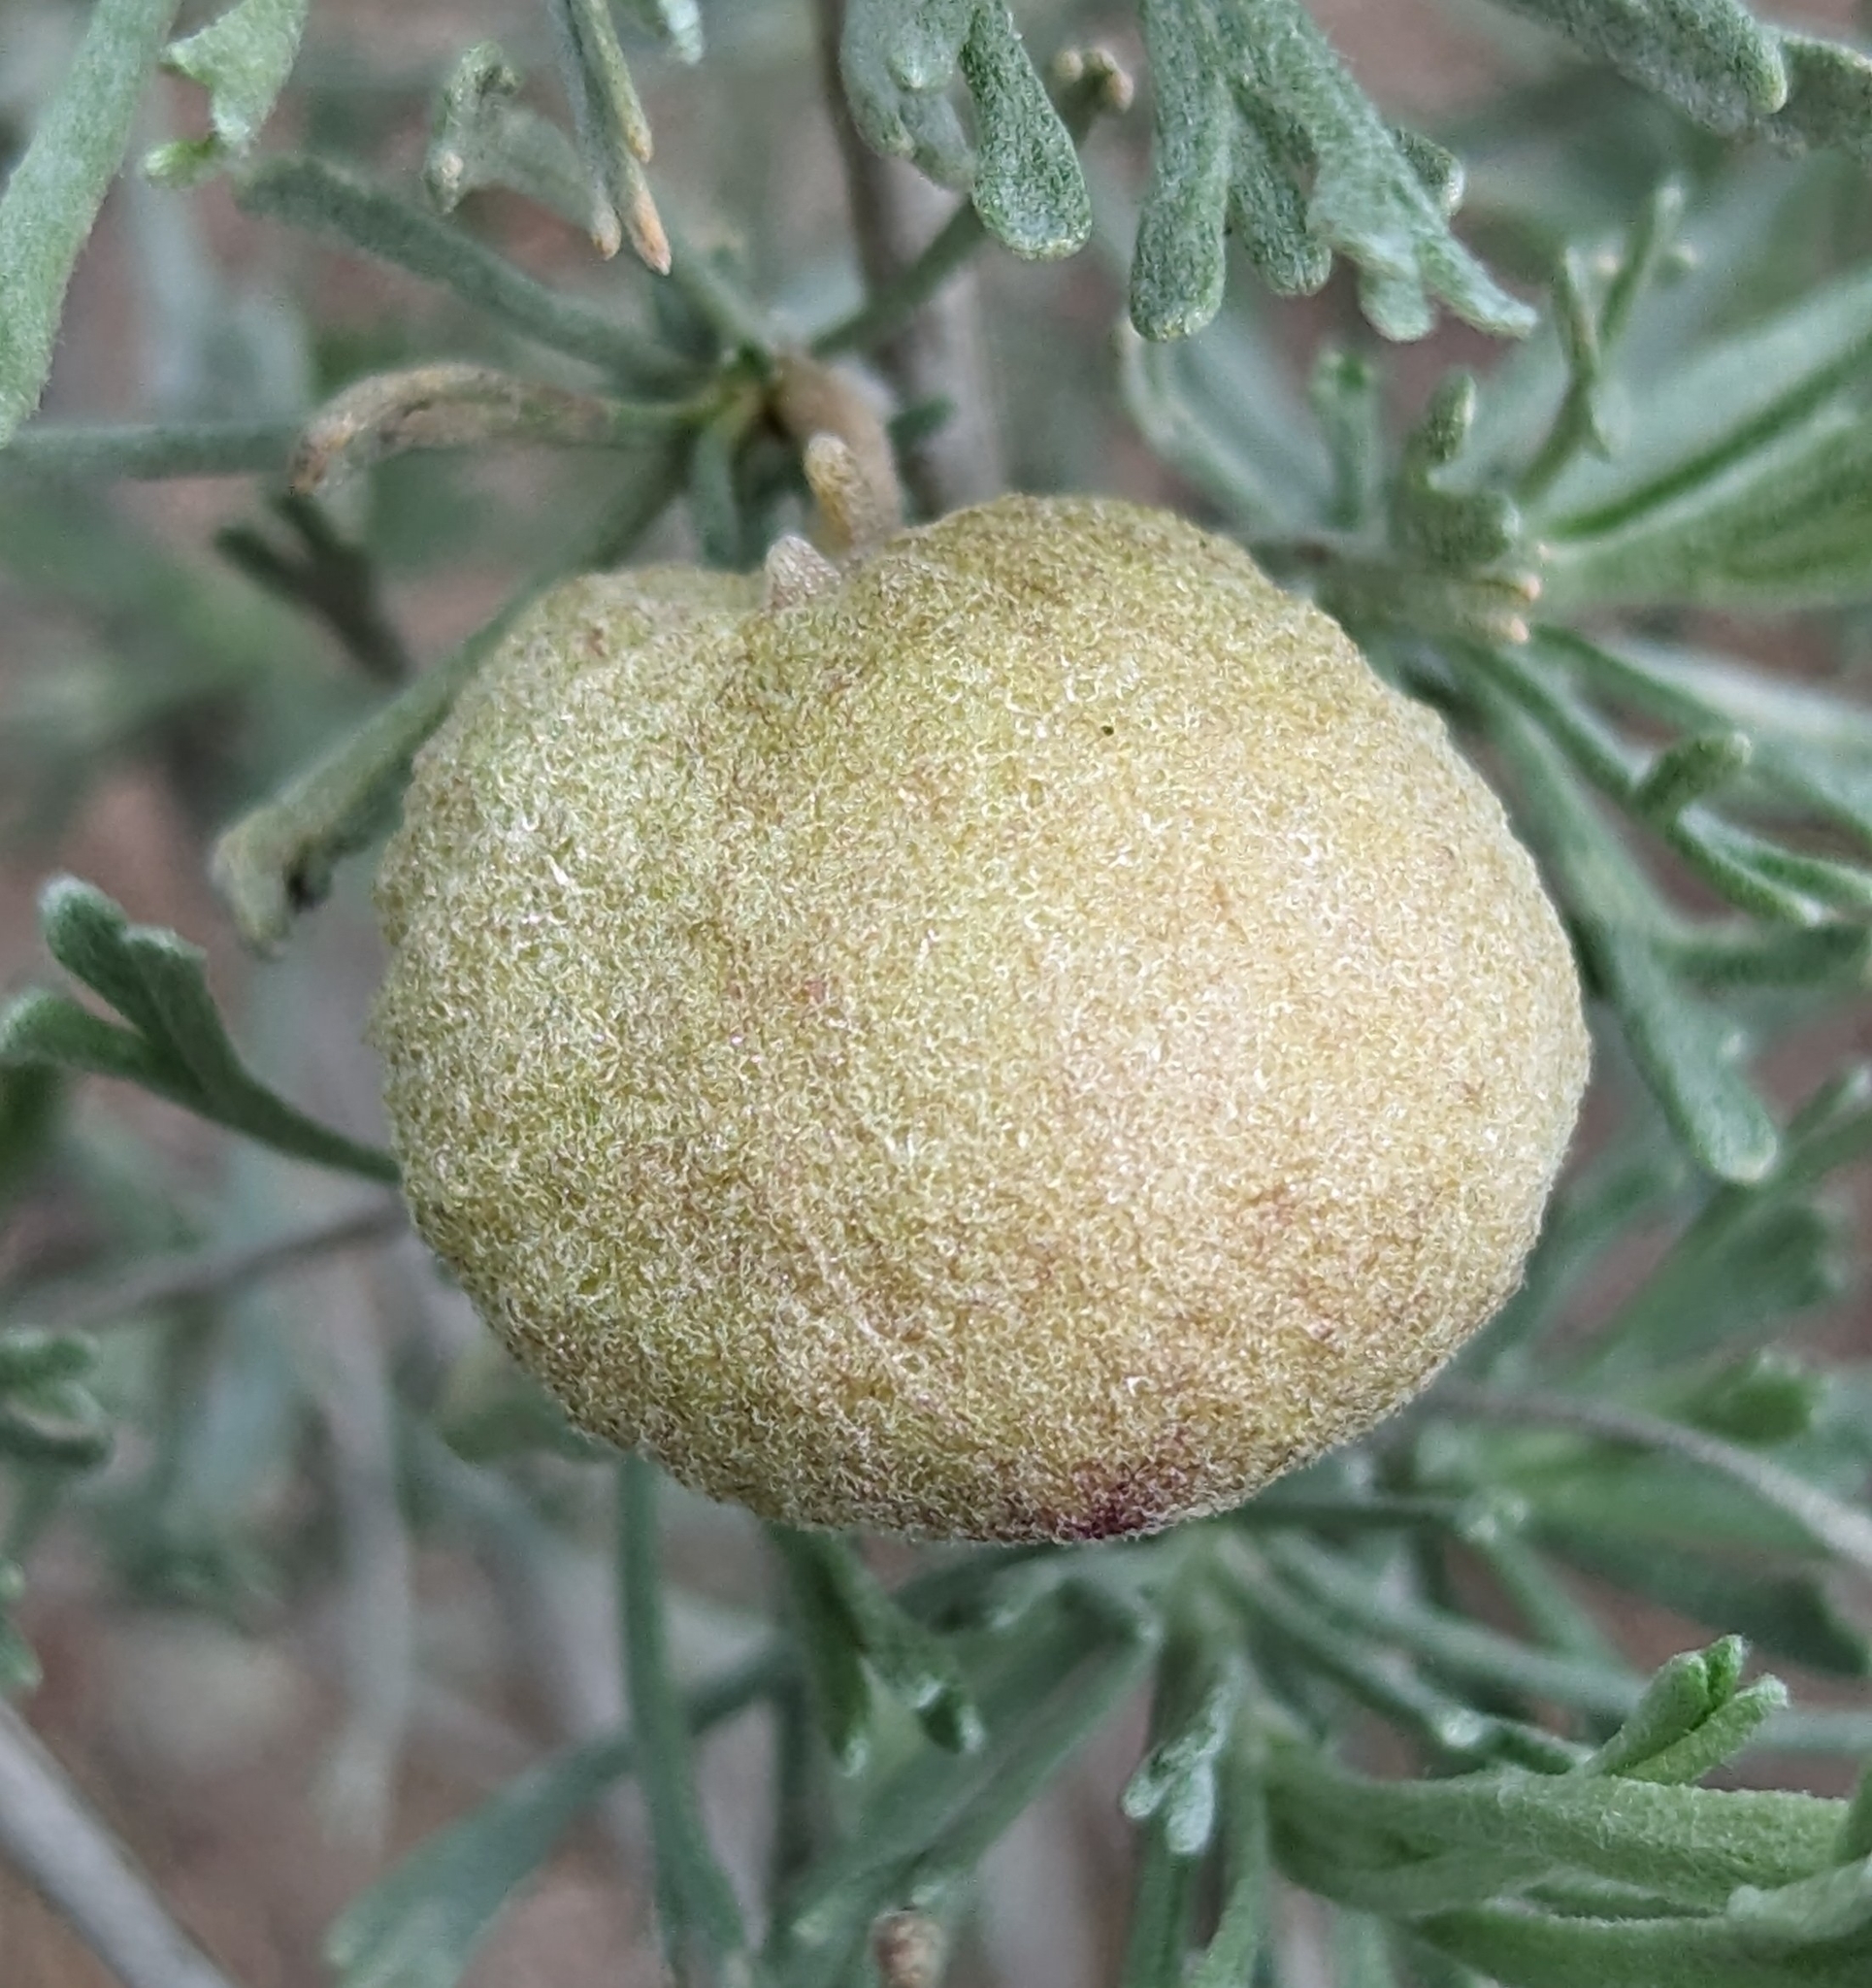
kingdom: Animalia
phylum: Arthropoda
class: Insecta
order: Diptera
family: Cecidomyiidae
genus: Rhopalomyia
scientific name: Rhopalomyia pomum
